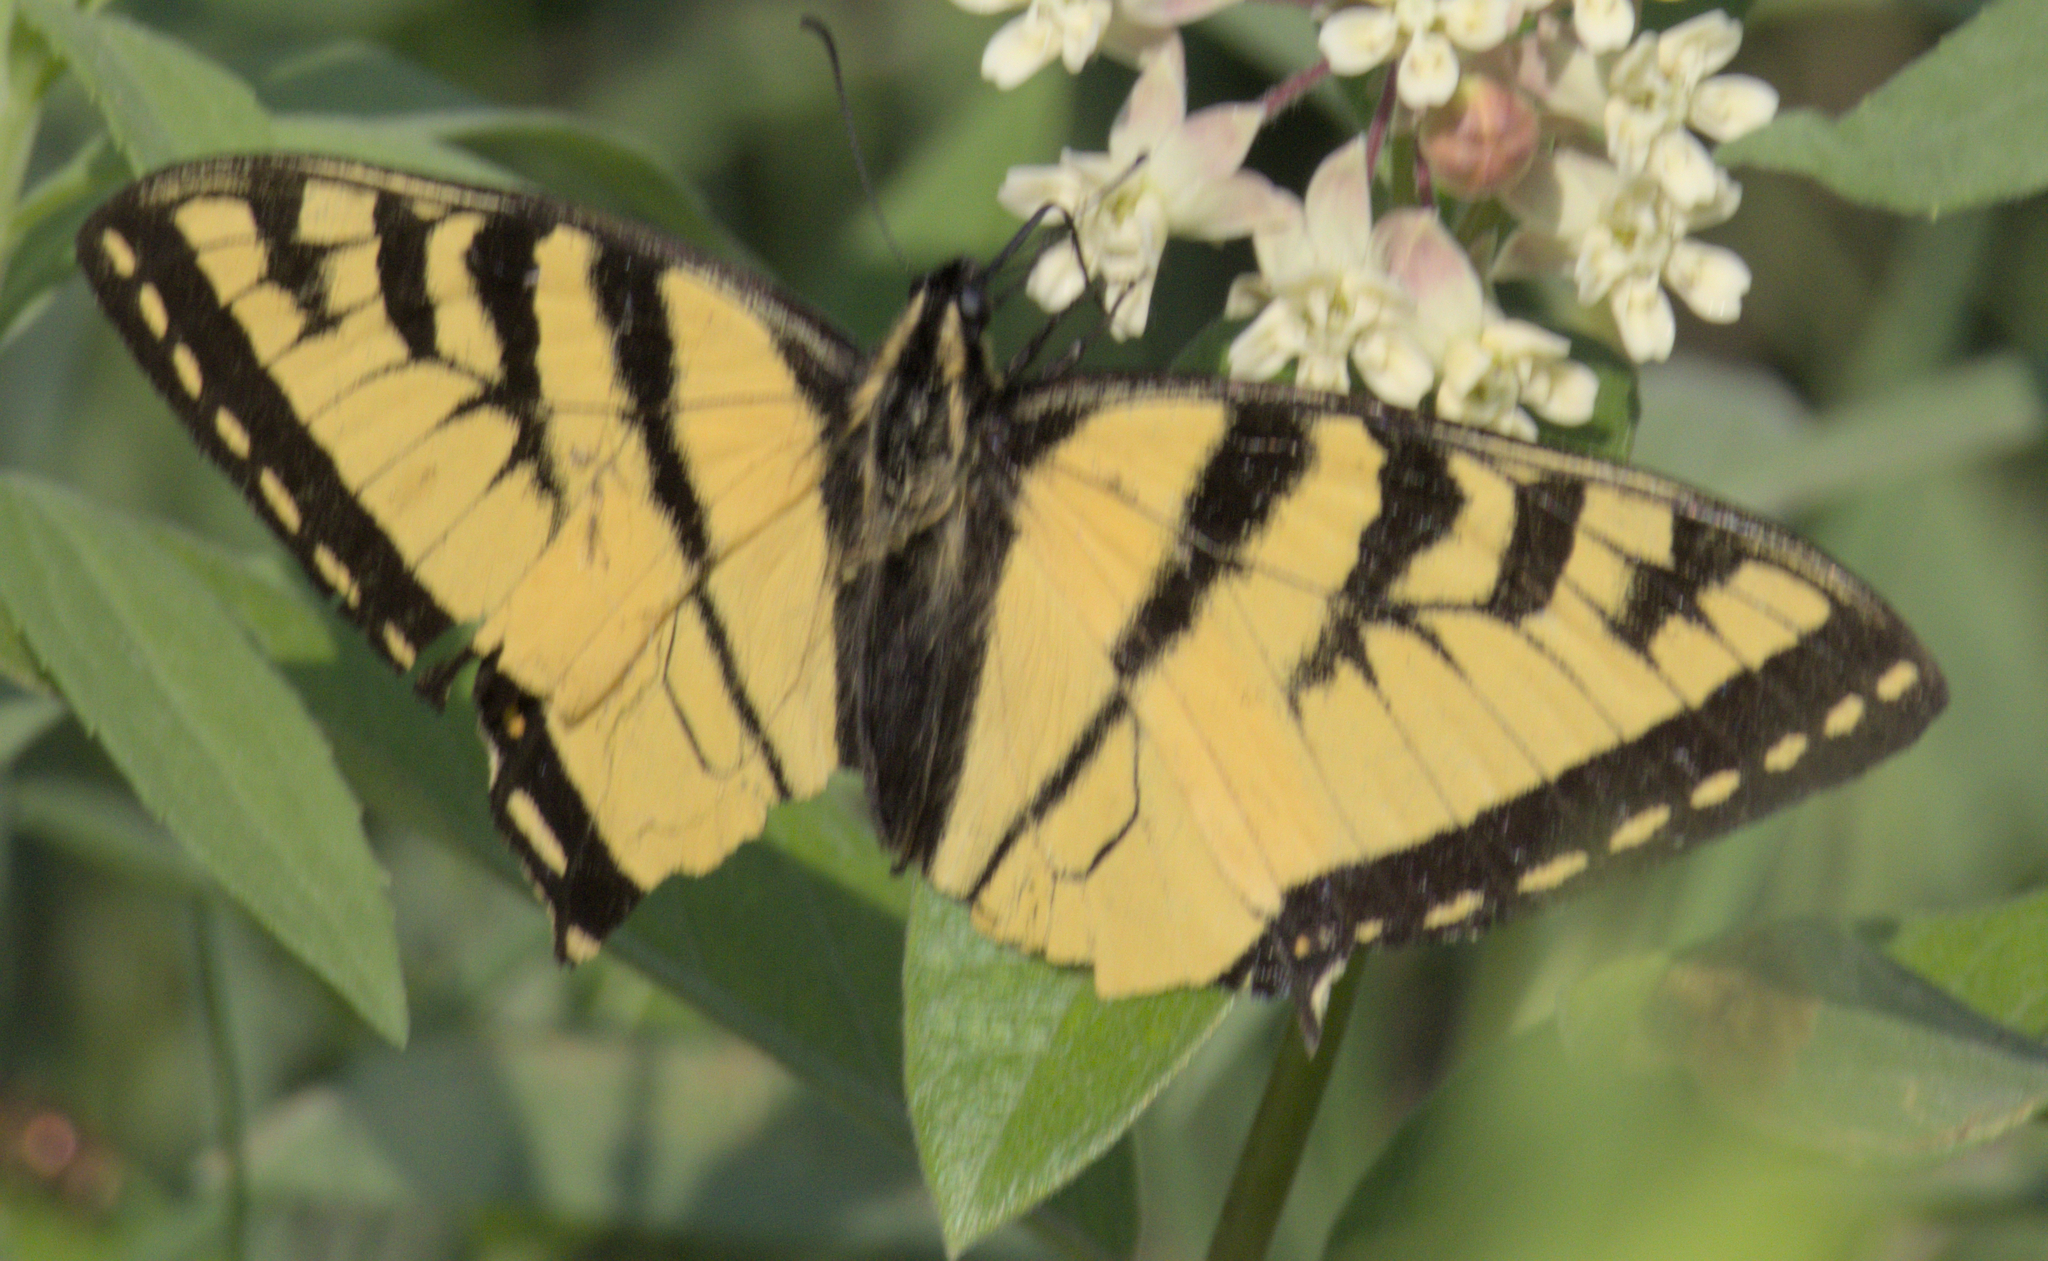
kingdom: Animalia
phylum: Arthropoda
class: Insecta
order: Lepidoptera
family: Papilionidae
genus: Papilio
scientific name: Papilio canadensis
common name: Canadian tiger swallowtail
